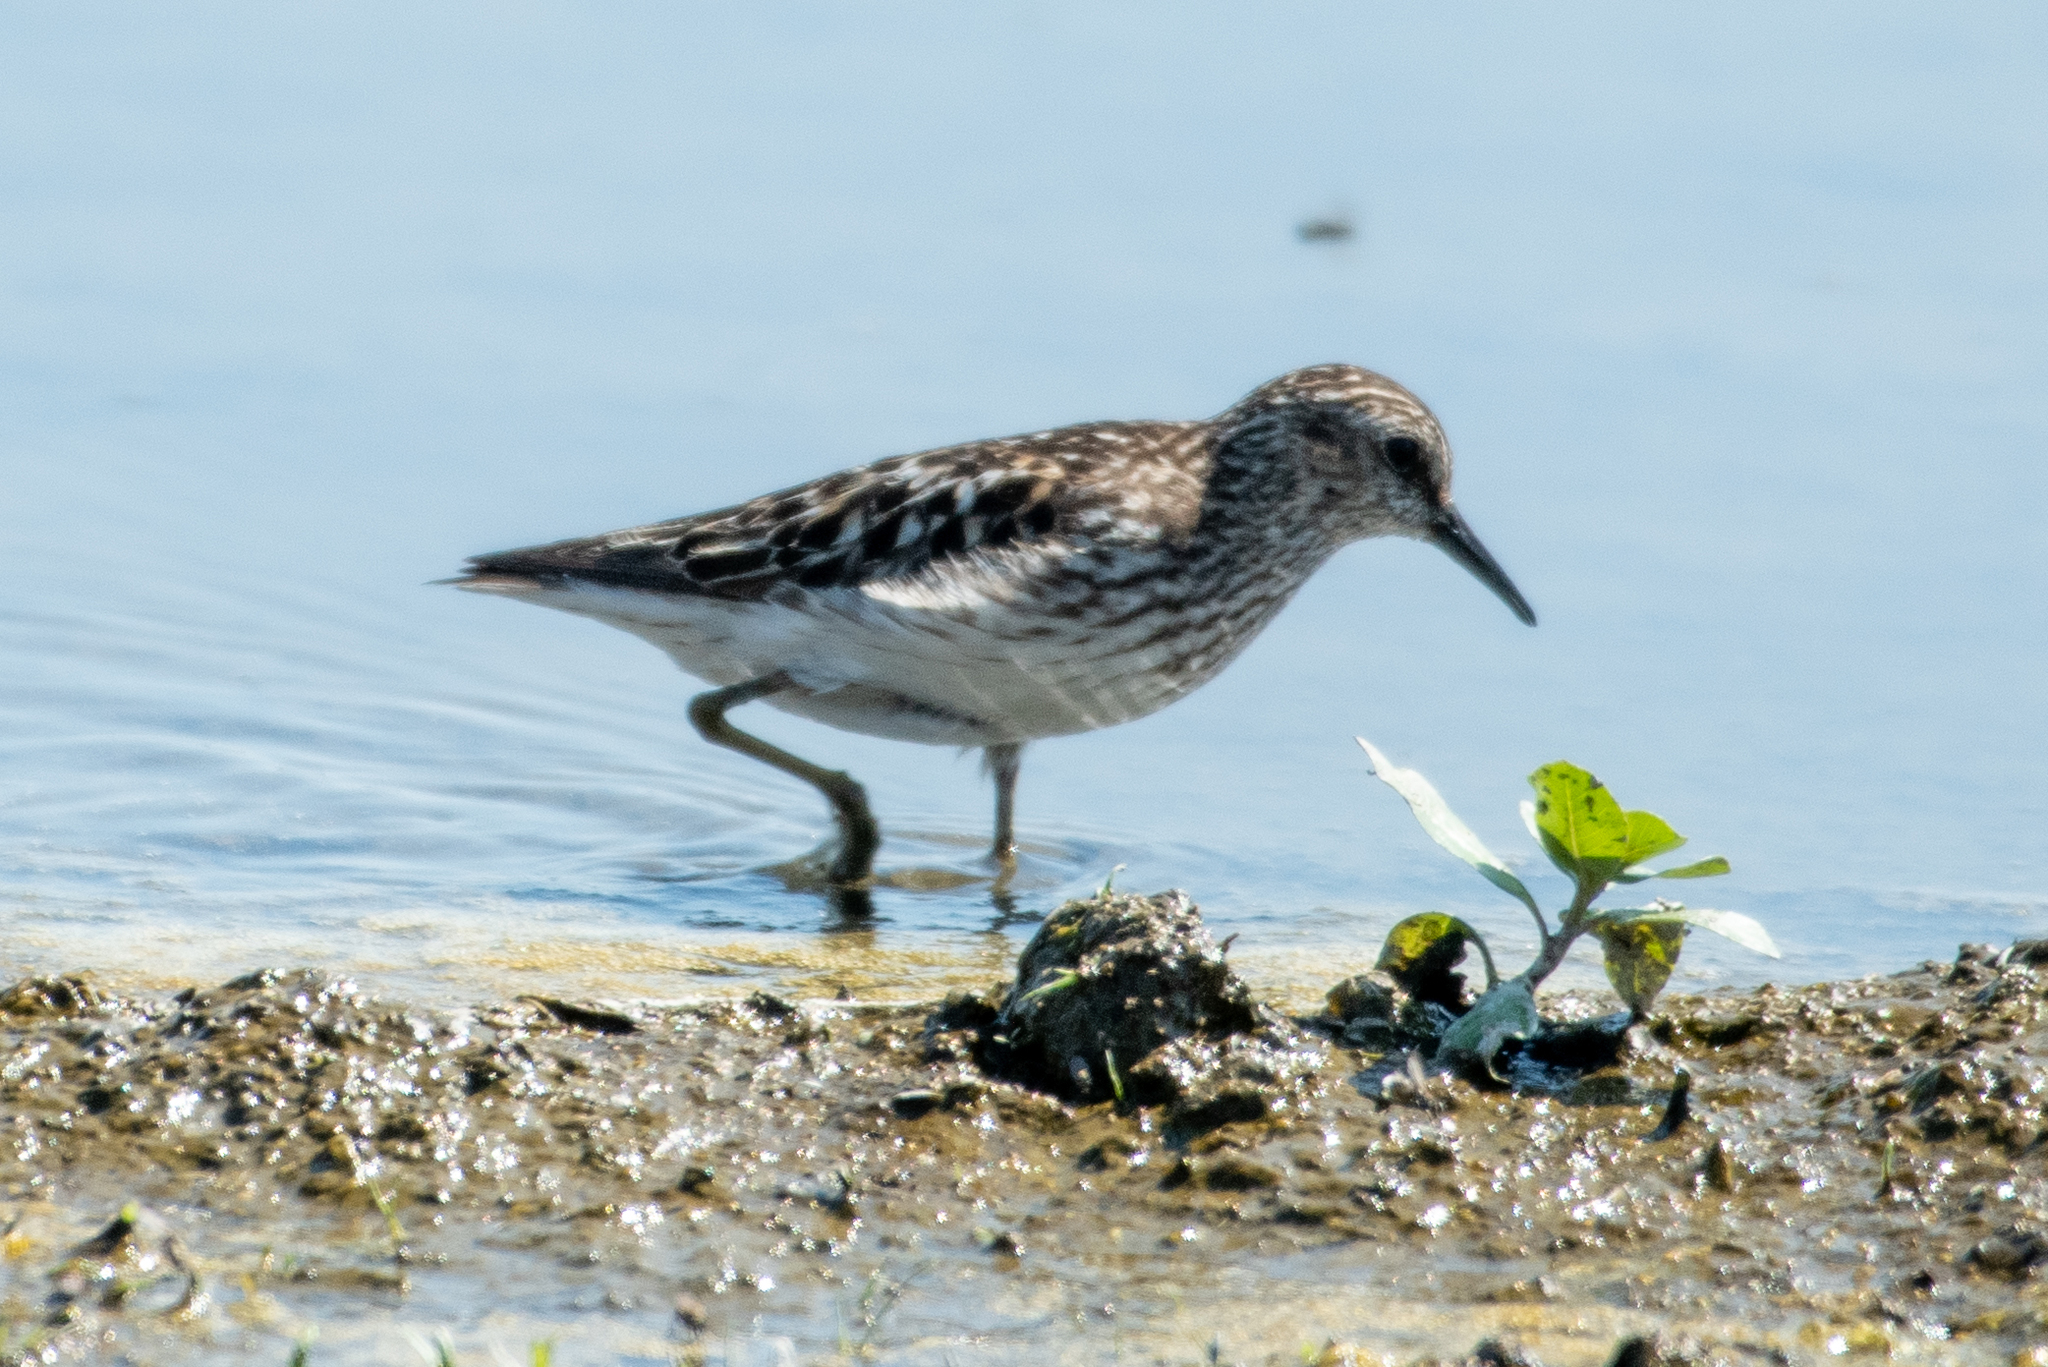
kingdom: Animalia
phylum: Chordata
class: Aves
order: Charadriiformes
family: Scolopacidae
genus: Calidris
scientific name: Calidris minutilla
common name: Least sandpiper
